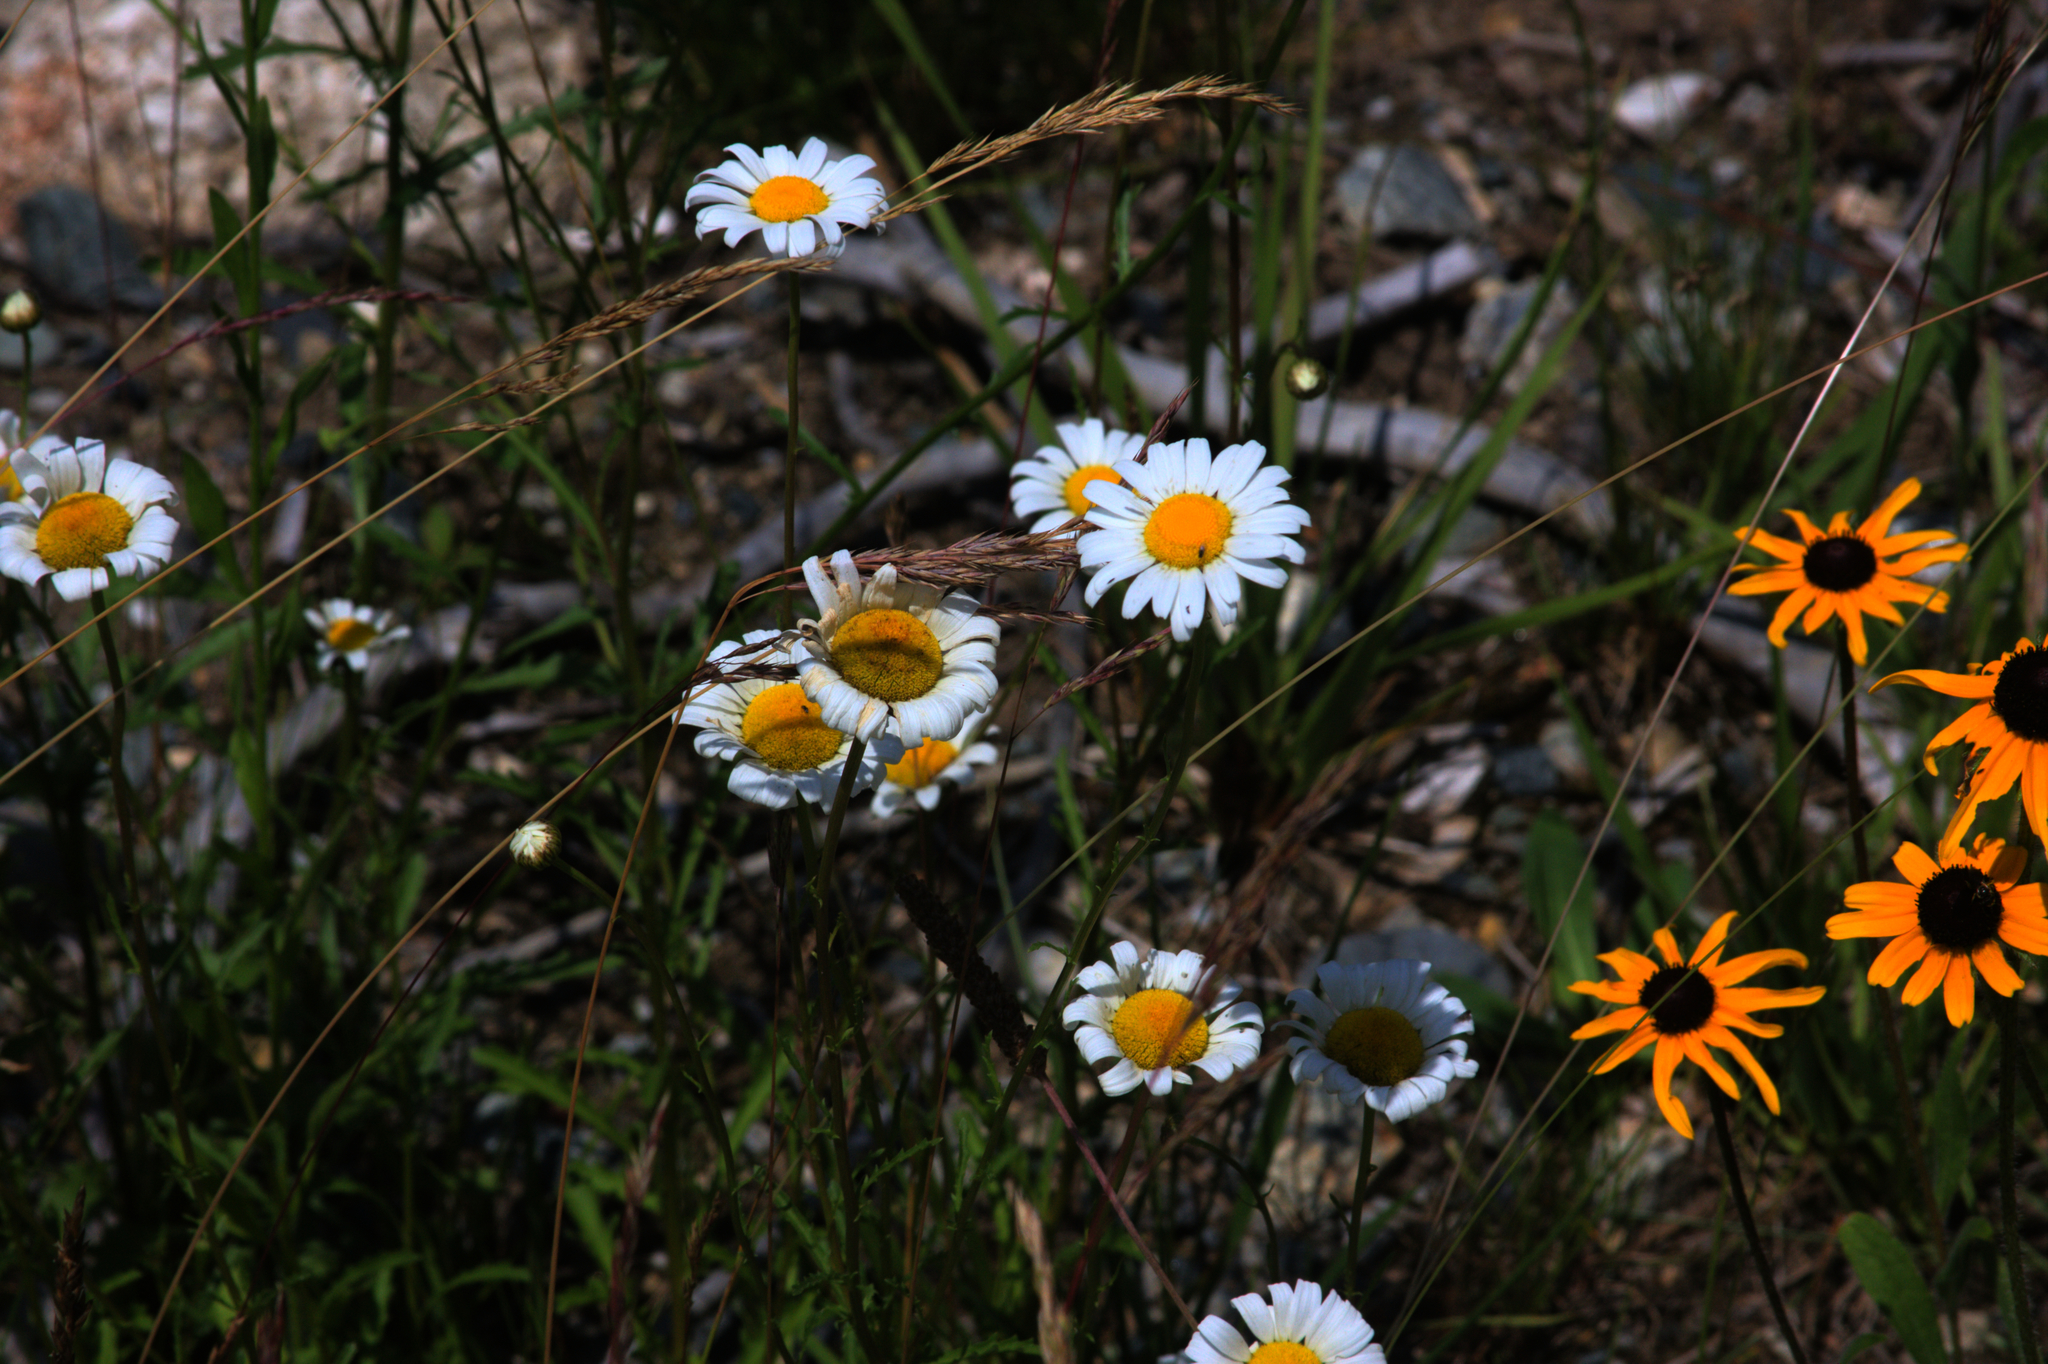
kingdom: Plantae
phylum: Tracheophyta
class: Magnoliopsida
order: Asterales
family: Asteraceae
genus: Leucanthemum
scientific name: Leucanthemum vulgare
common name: Oxeye daisy
